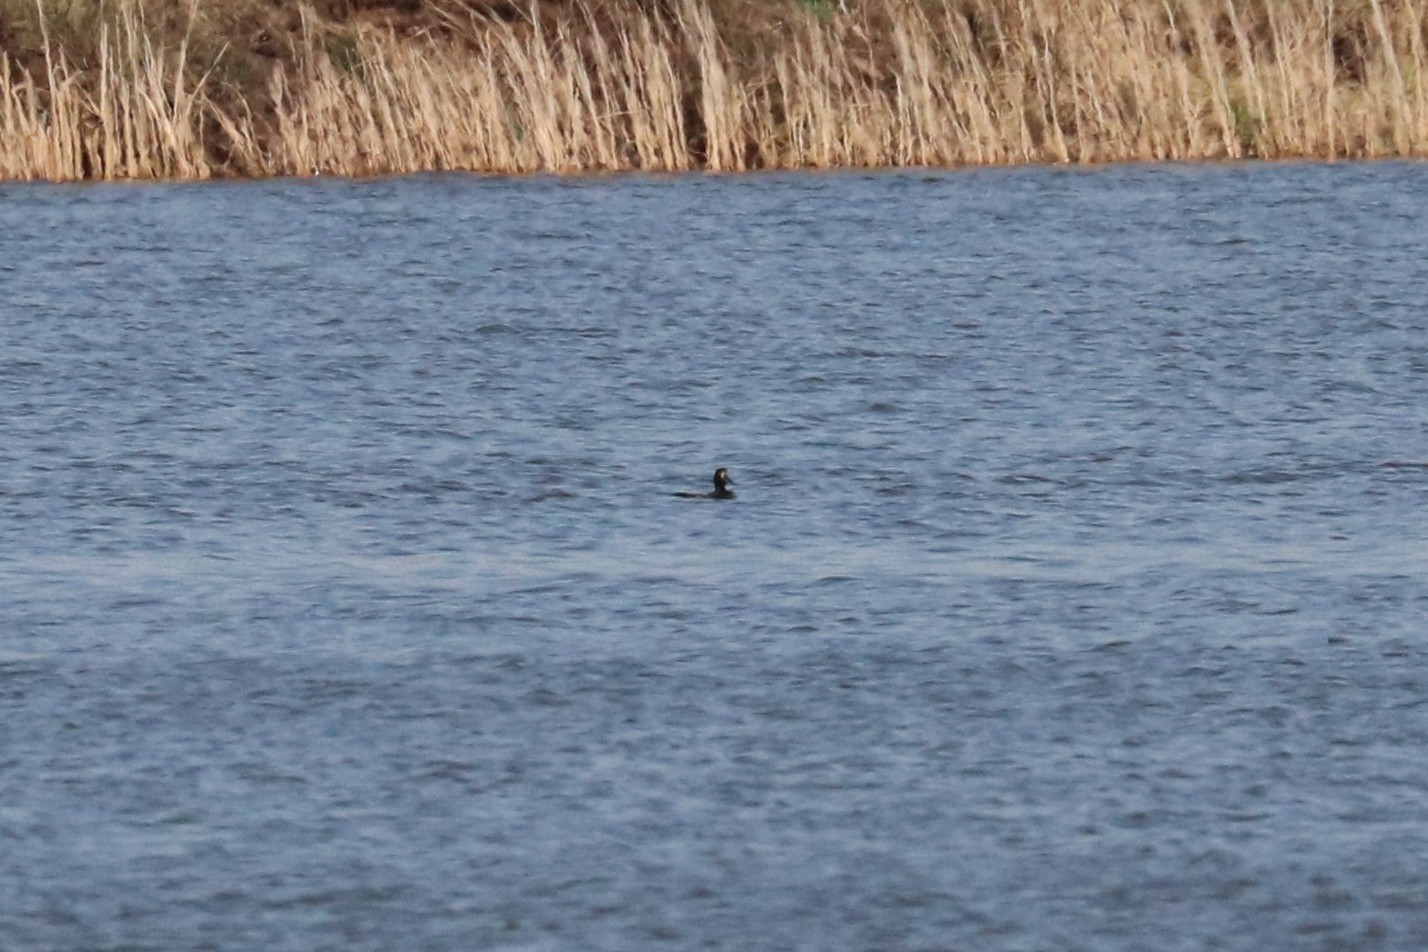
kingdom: Animalia
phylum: Chordata
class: Aves
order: Anseriformes
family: Anatidae
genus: Aythya
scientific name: Aythya fuligula
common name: Tufted duck
